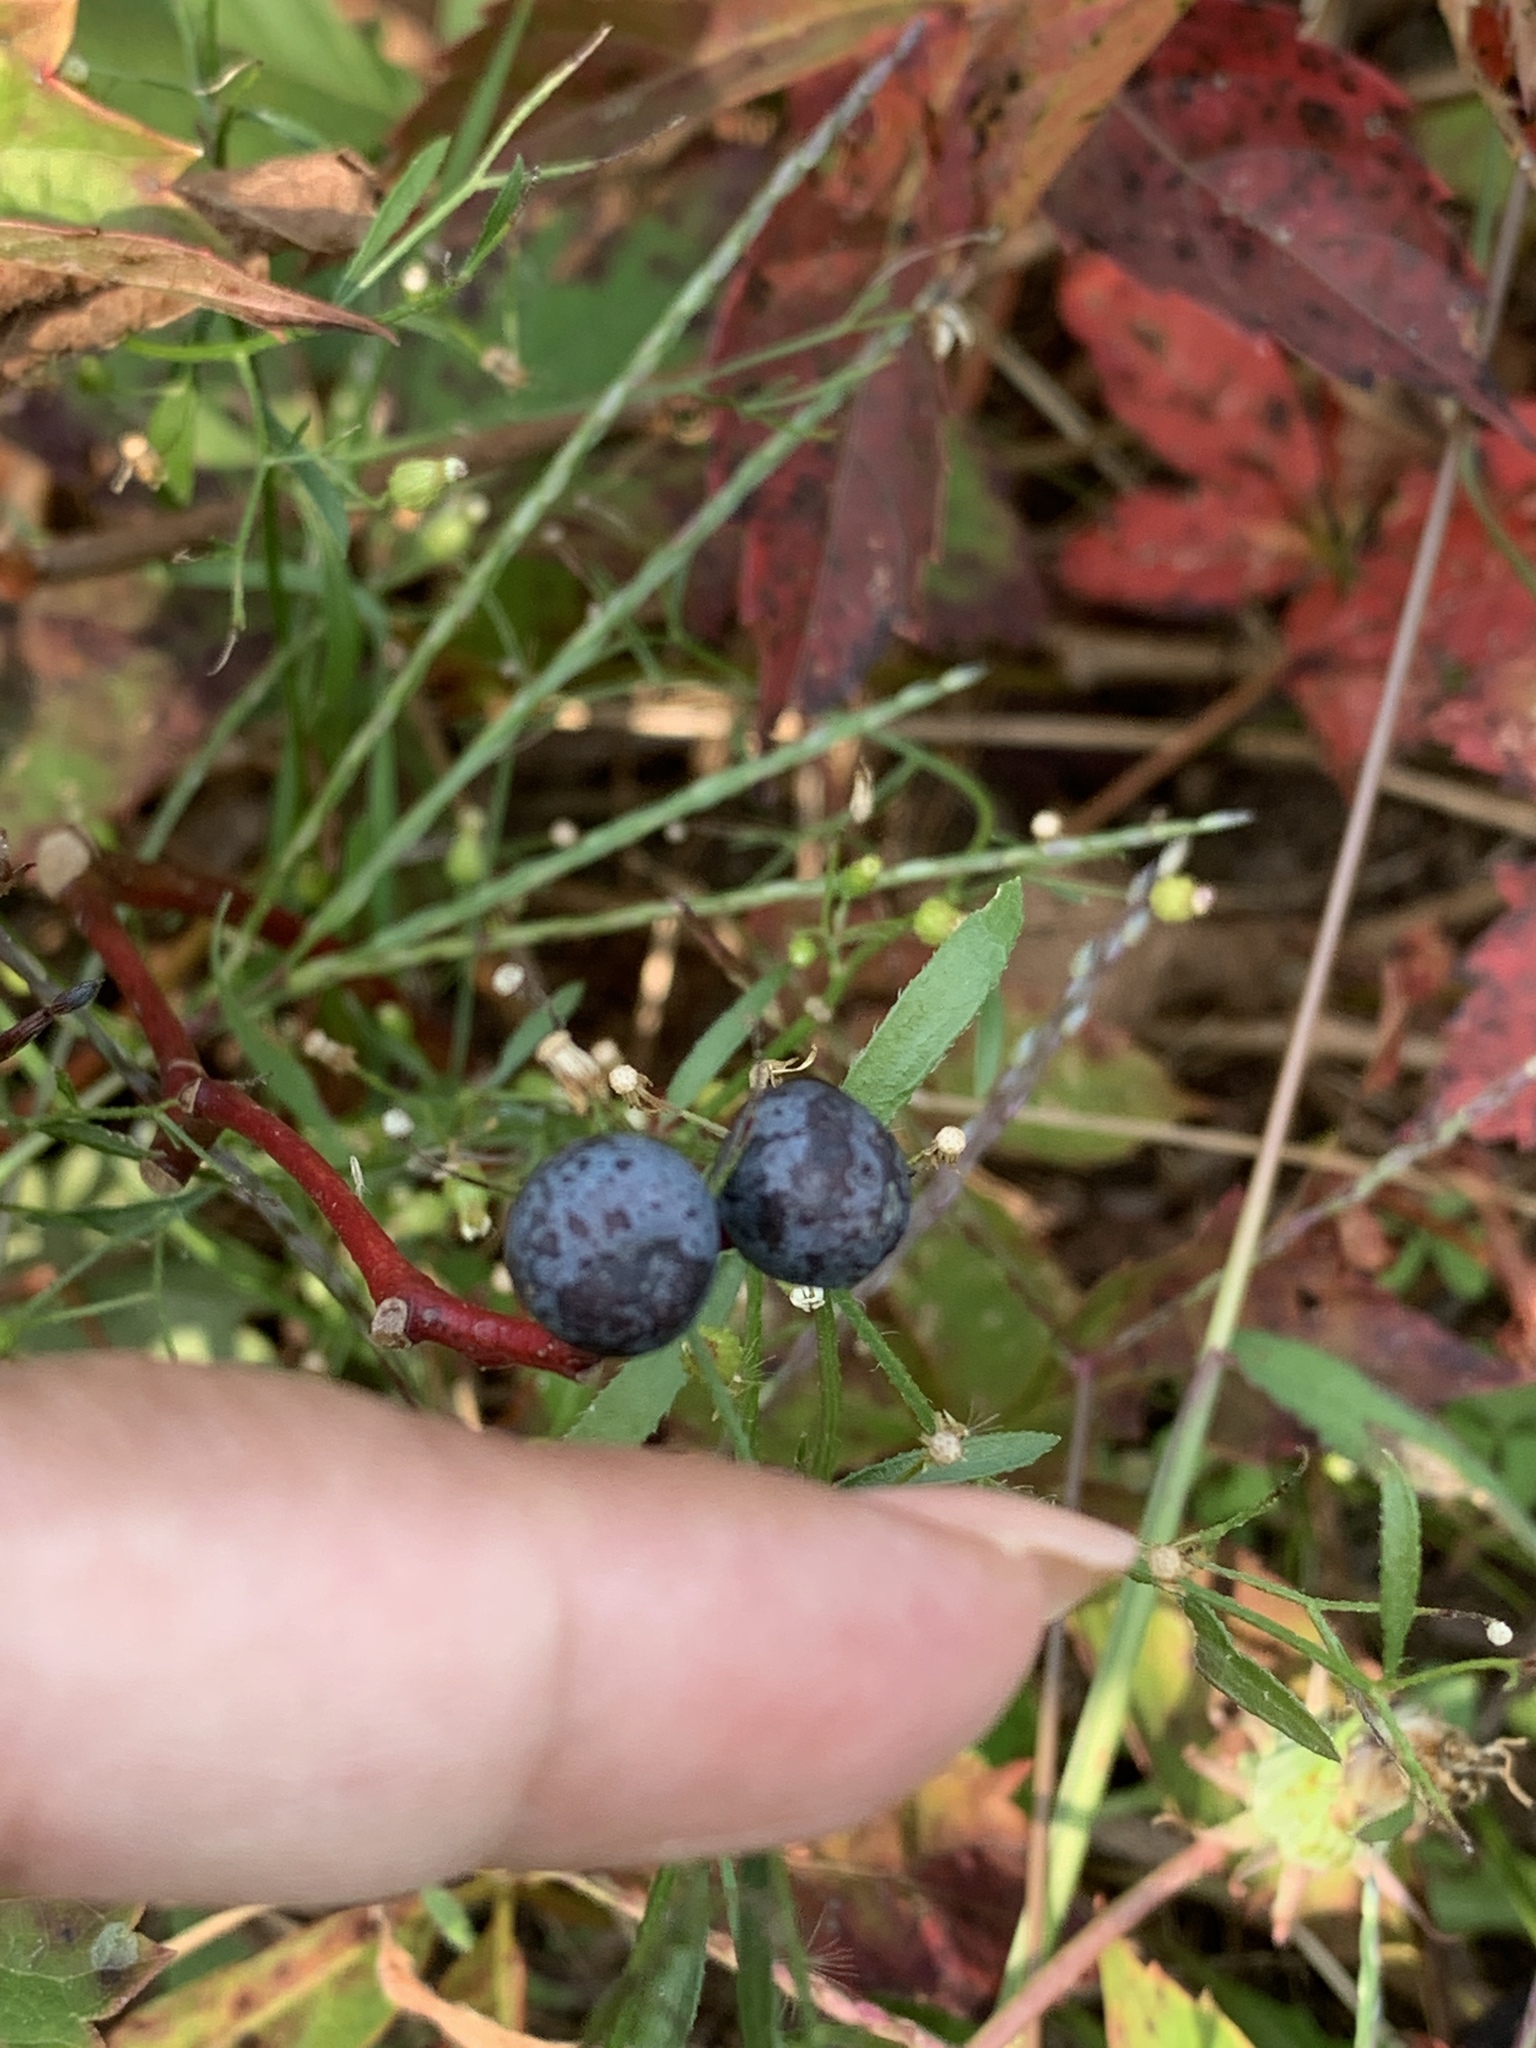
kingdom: Plantae
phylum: Tracheophyta
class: Magnoliopsida
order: Vitales
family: Vitaceae
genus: Parthenocissus
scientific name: Parthenocissus quinquefolia
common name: Virginia-creeper
